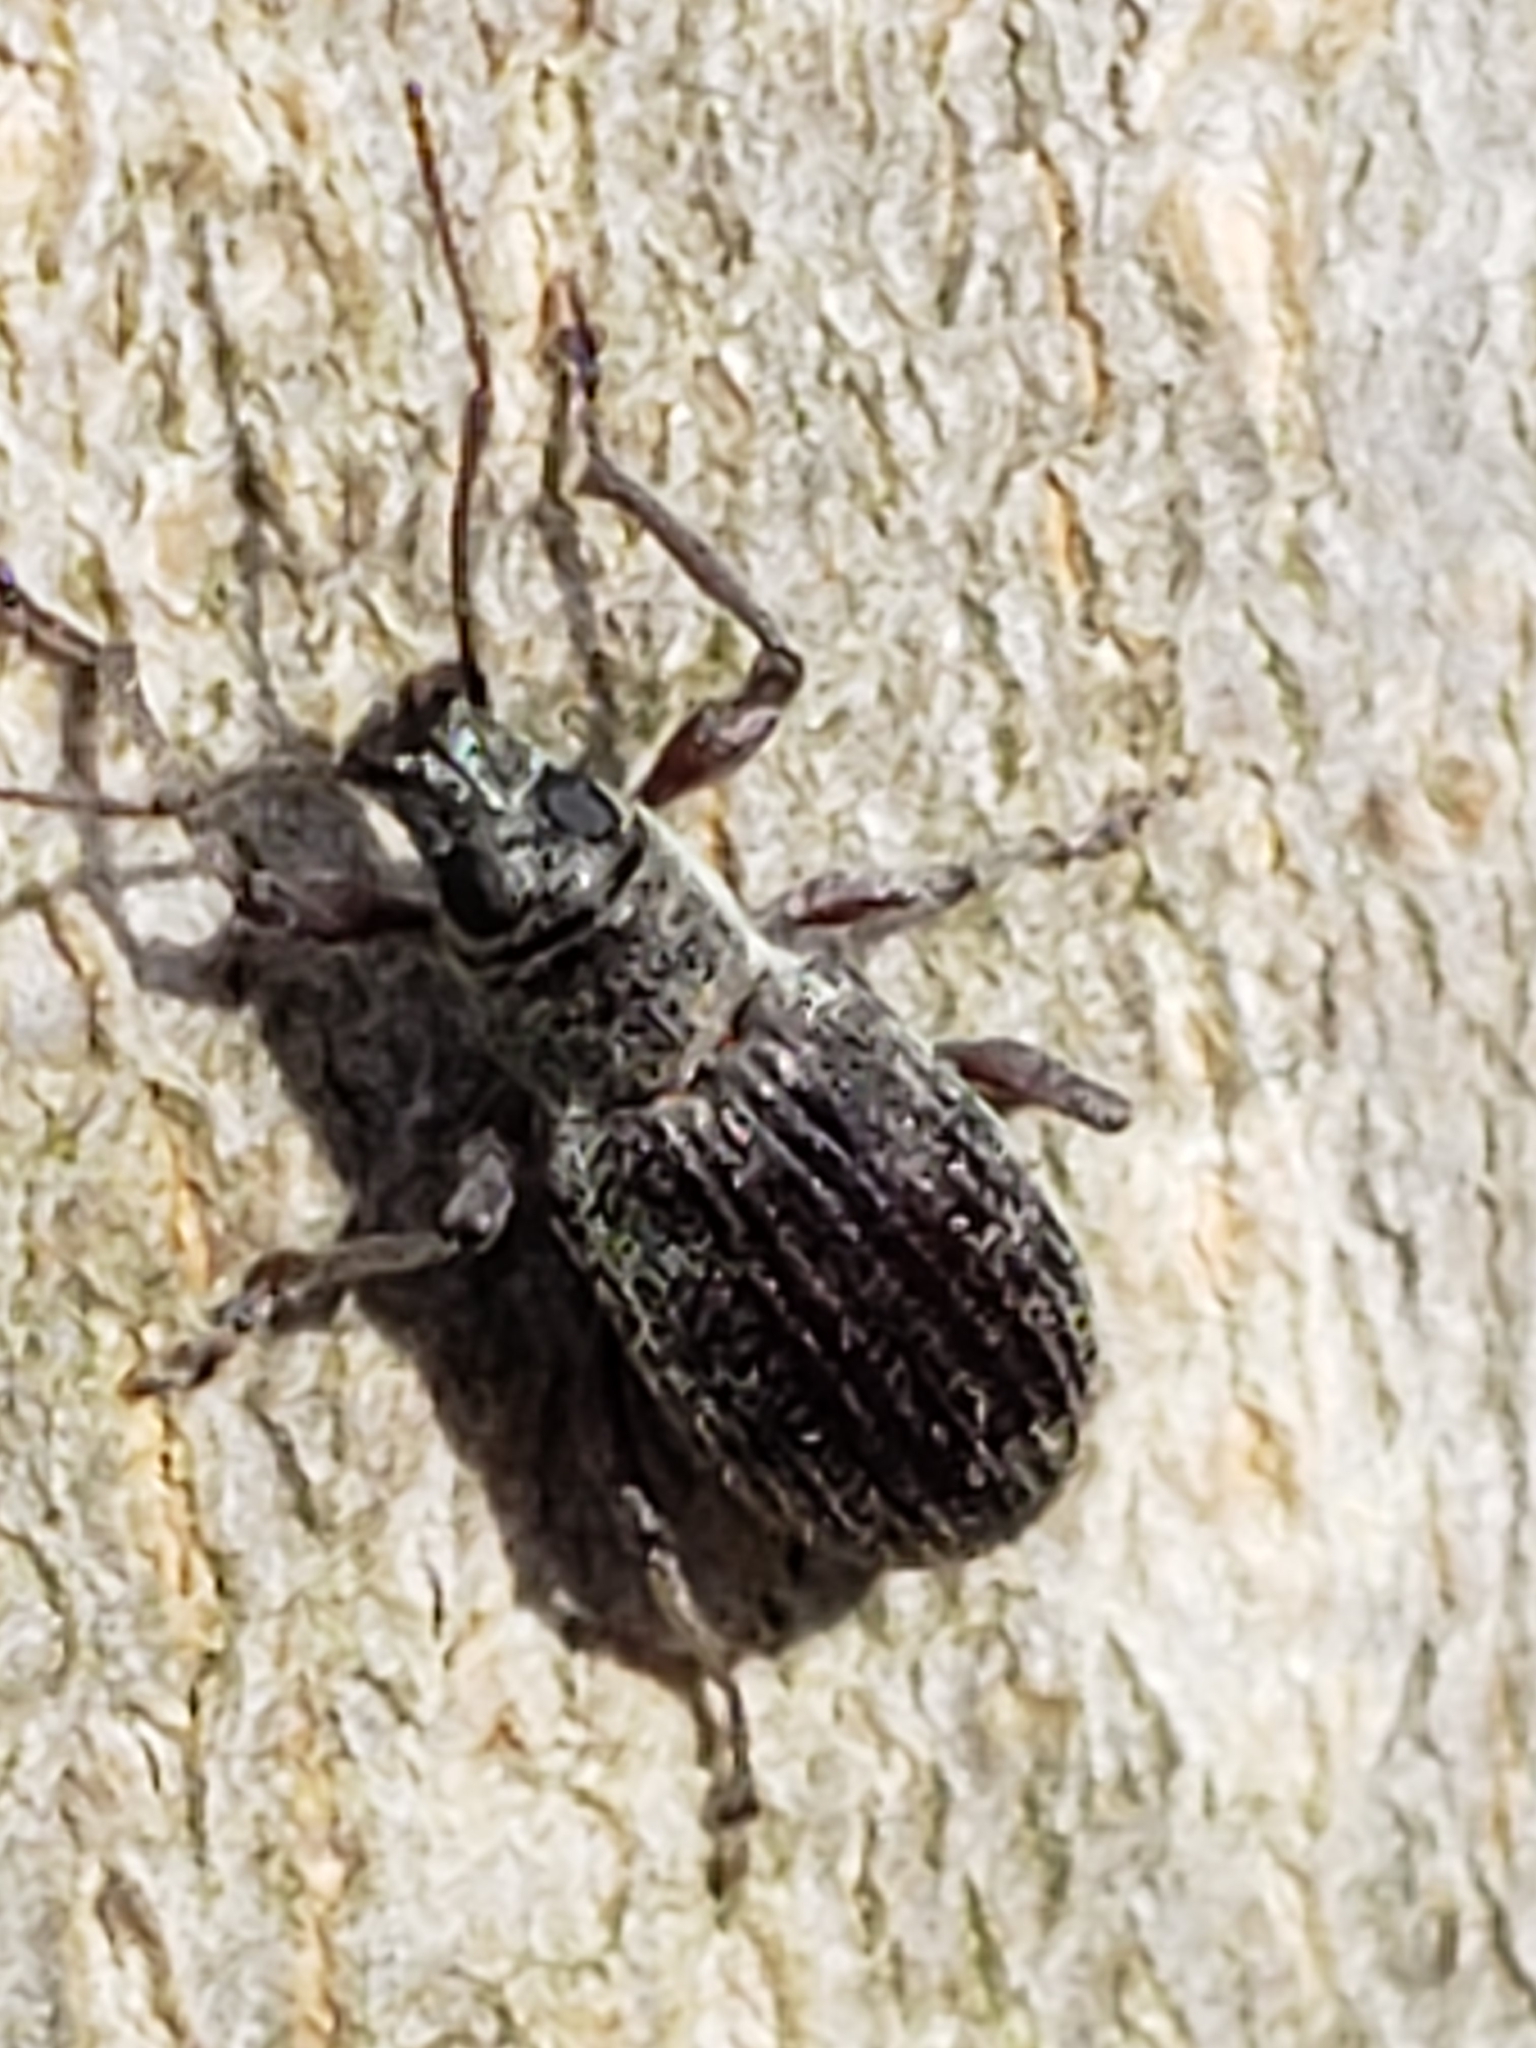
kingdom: Animalia
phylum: Arthropoda
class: Insecta
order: Coleoptera
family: Curculionidae
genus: Cyrtepistomus
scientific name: Cyrtepistomus castaneus
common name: Weevil
